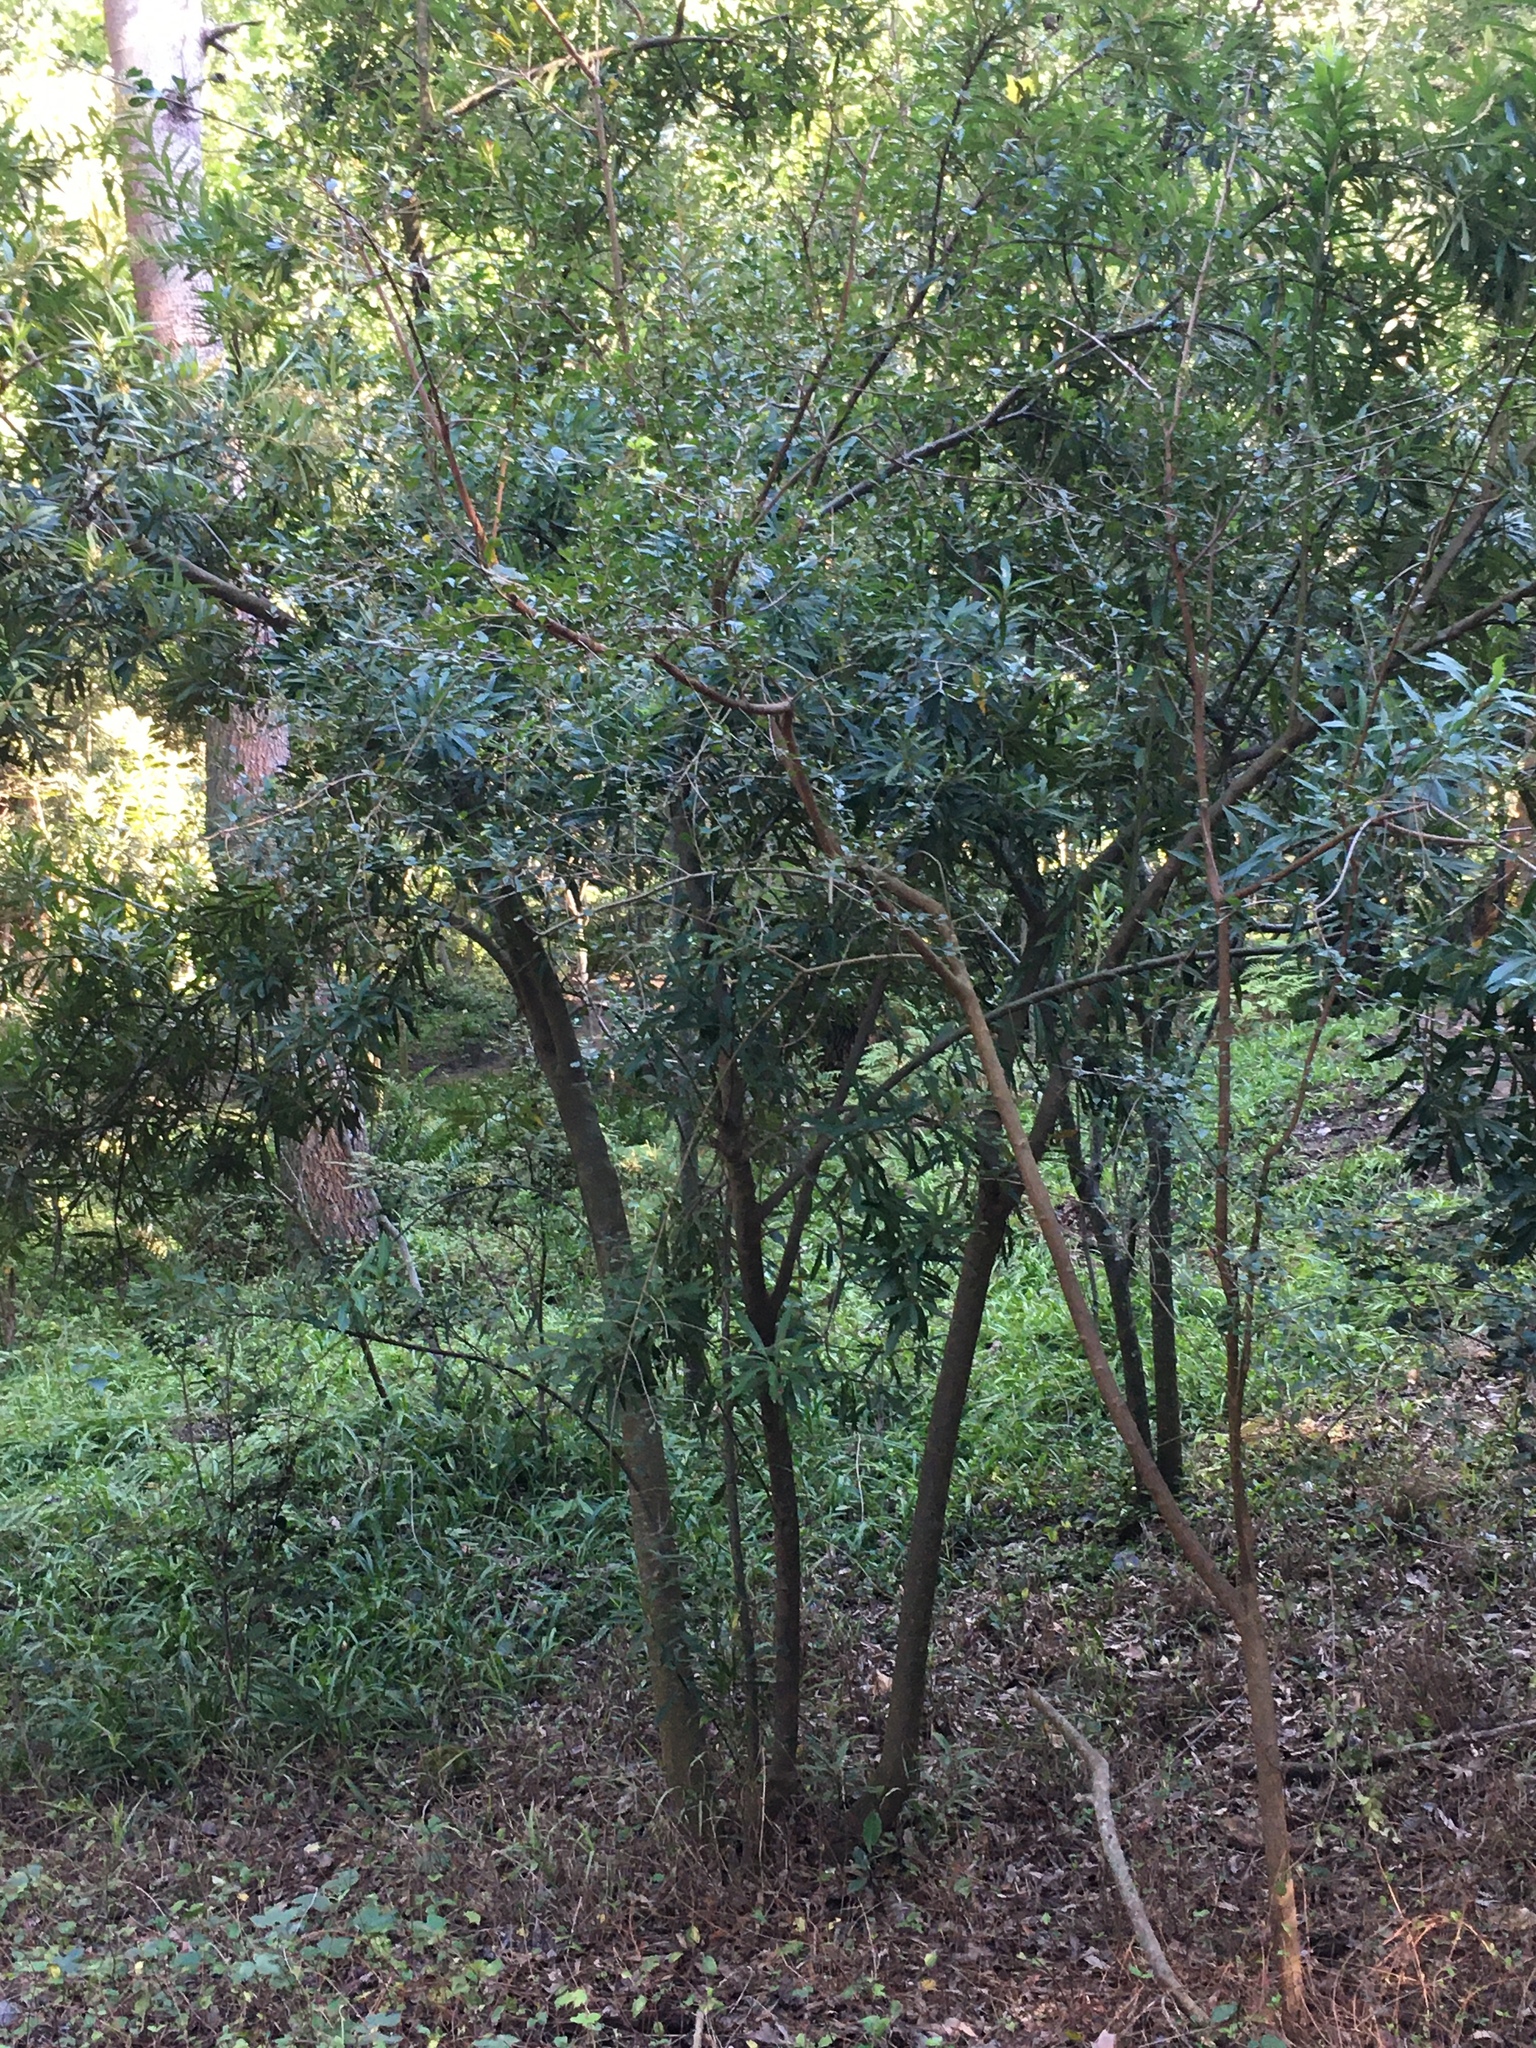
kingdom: Plantae
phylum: Tracheophyta
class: Magnoliopsida
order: Asterales
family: Asteraceae
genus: Brachylaena
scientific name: Brachylaena neriifolia
